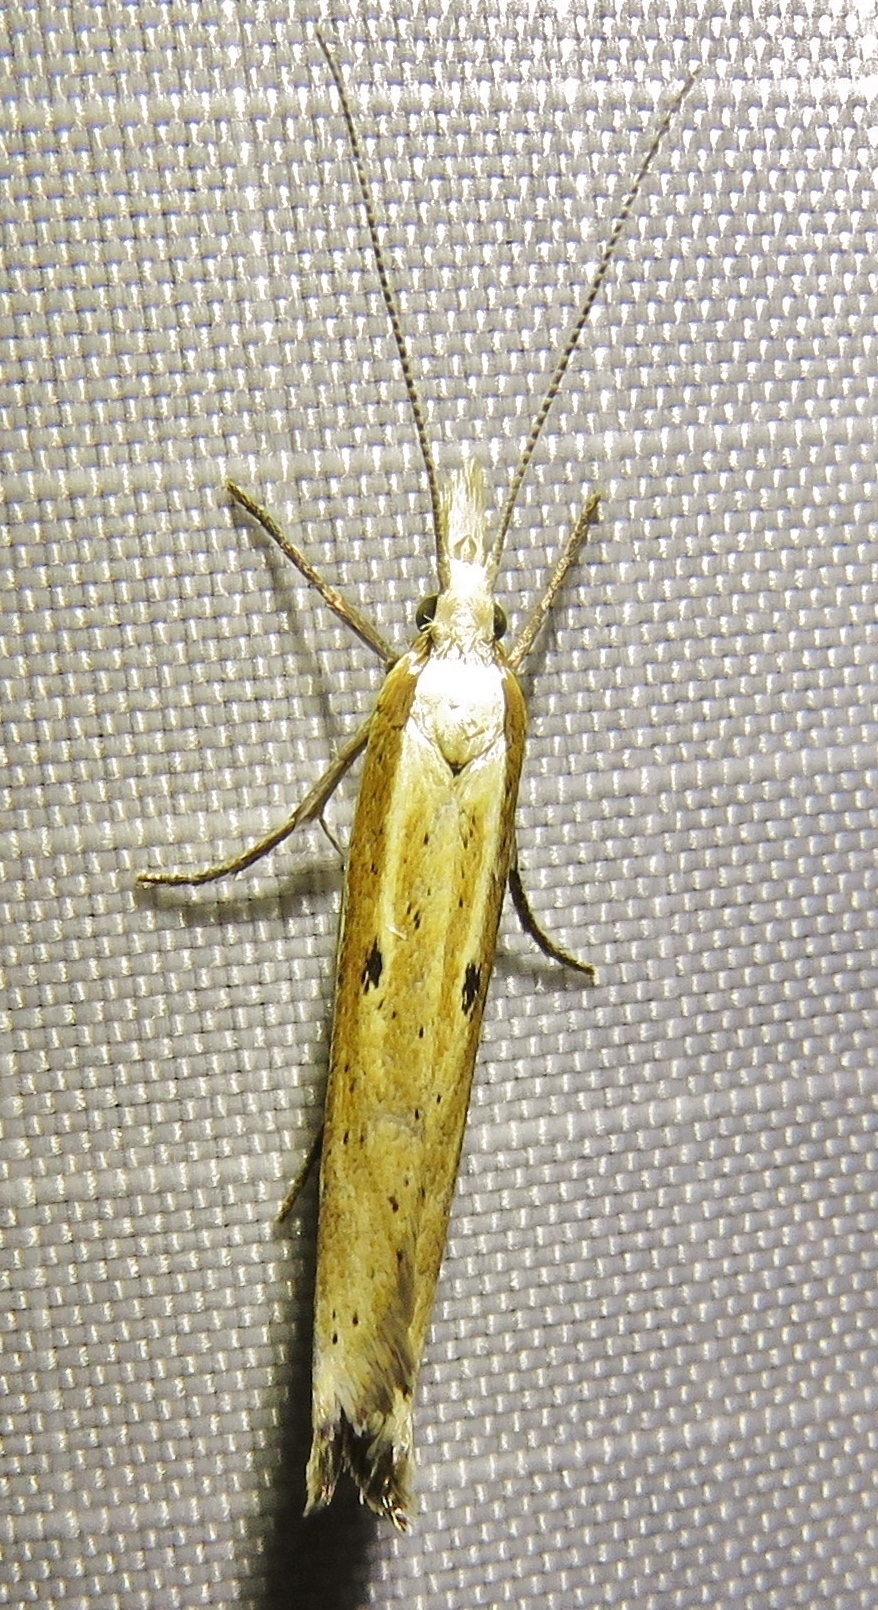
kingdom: Animalia
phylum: Arthropoda
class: Insecta
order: Lepidoptera
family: Ypsolophidae
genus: Ypsolopha
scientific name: Ypsolopha nemorella
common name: Hooked smudge
